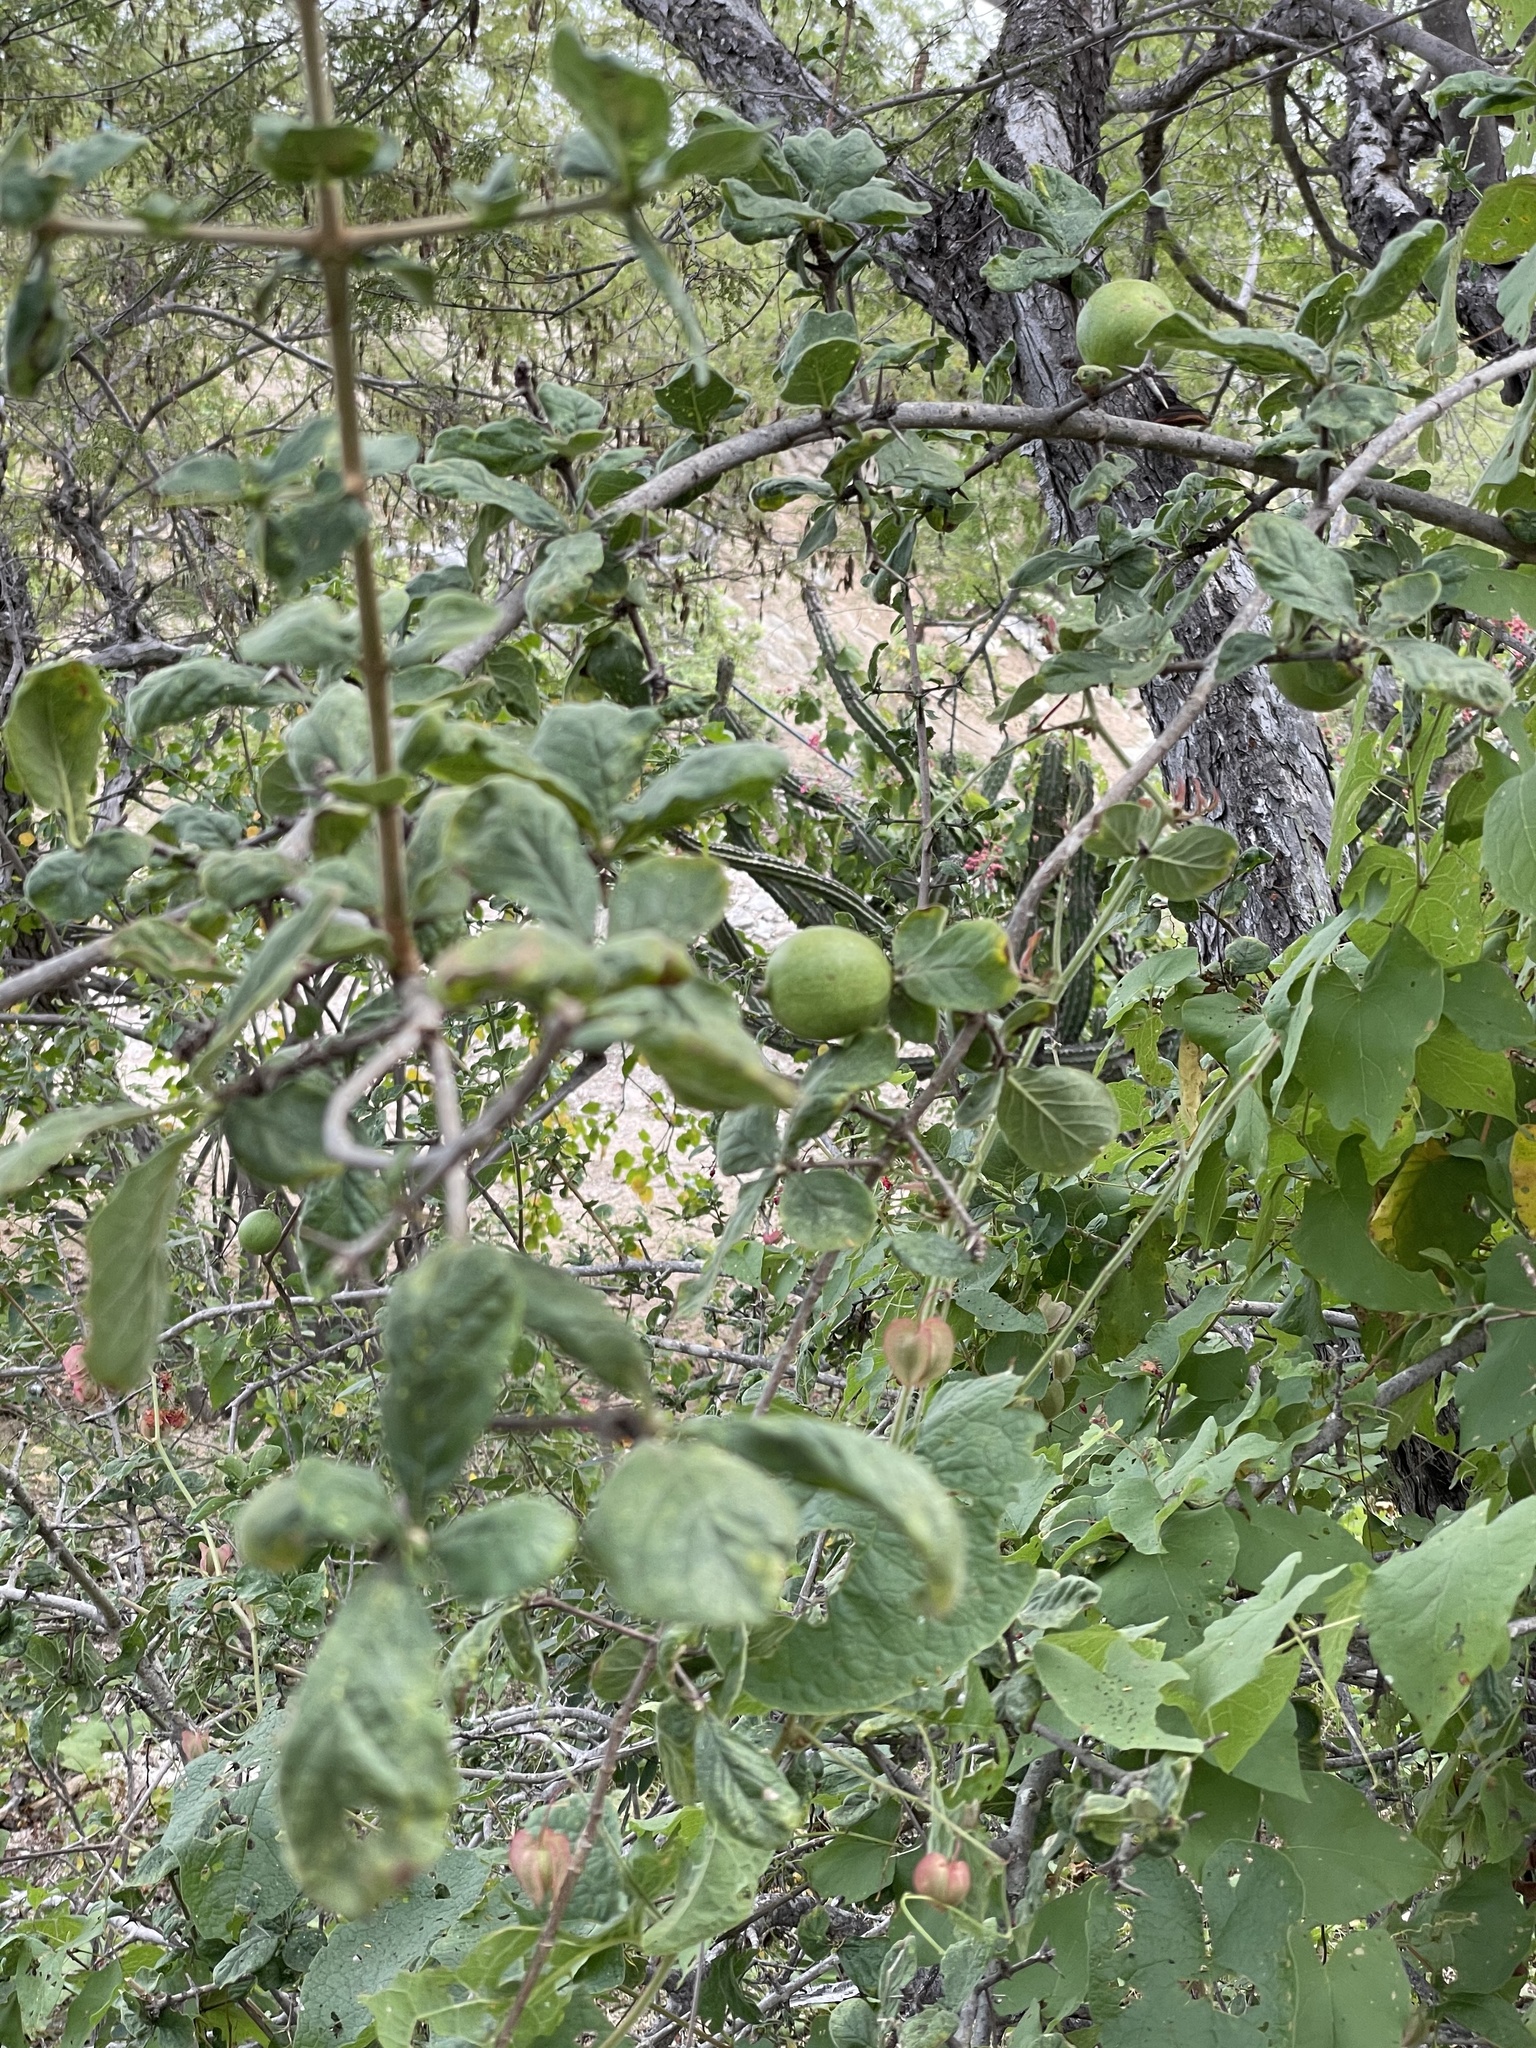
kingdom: Plantae
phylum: Tracheophyta
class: Magnoliopsida
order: Gentianales
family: Rubiaceae
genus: Randia
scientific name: Randia capitata
